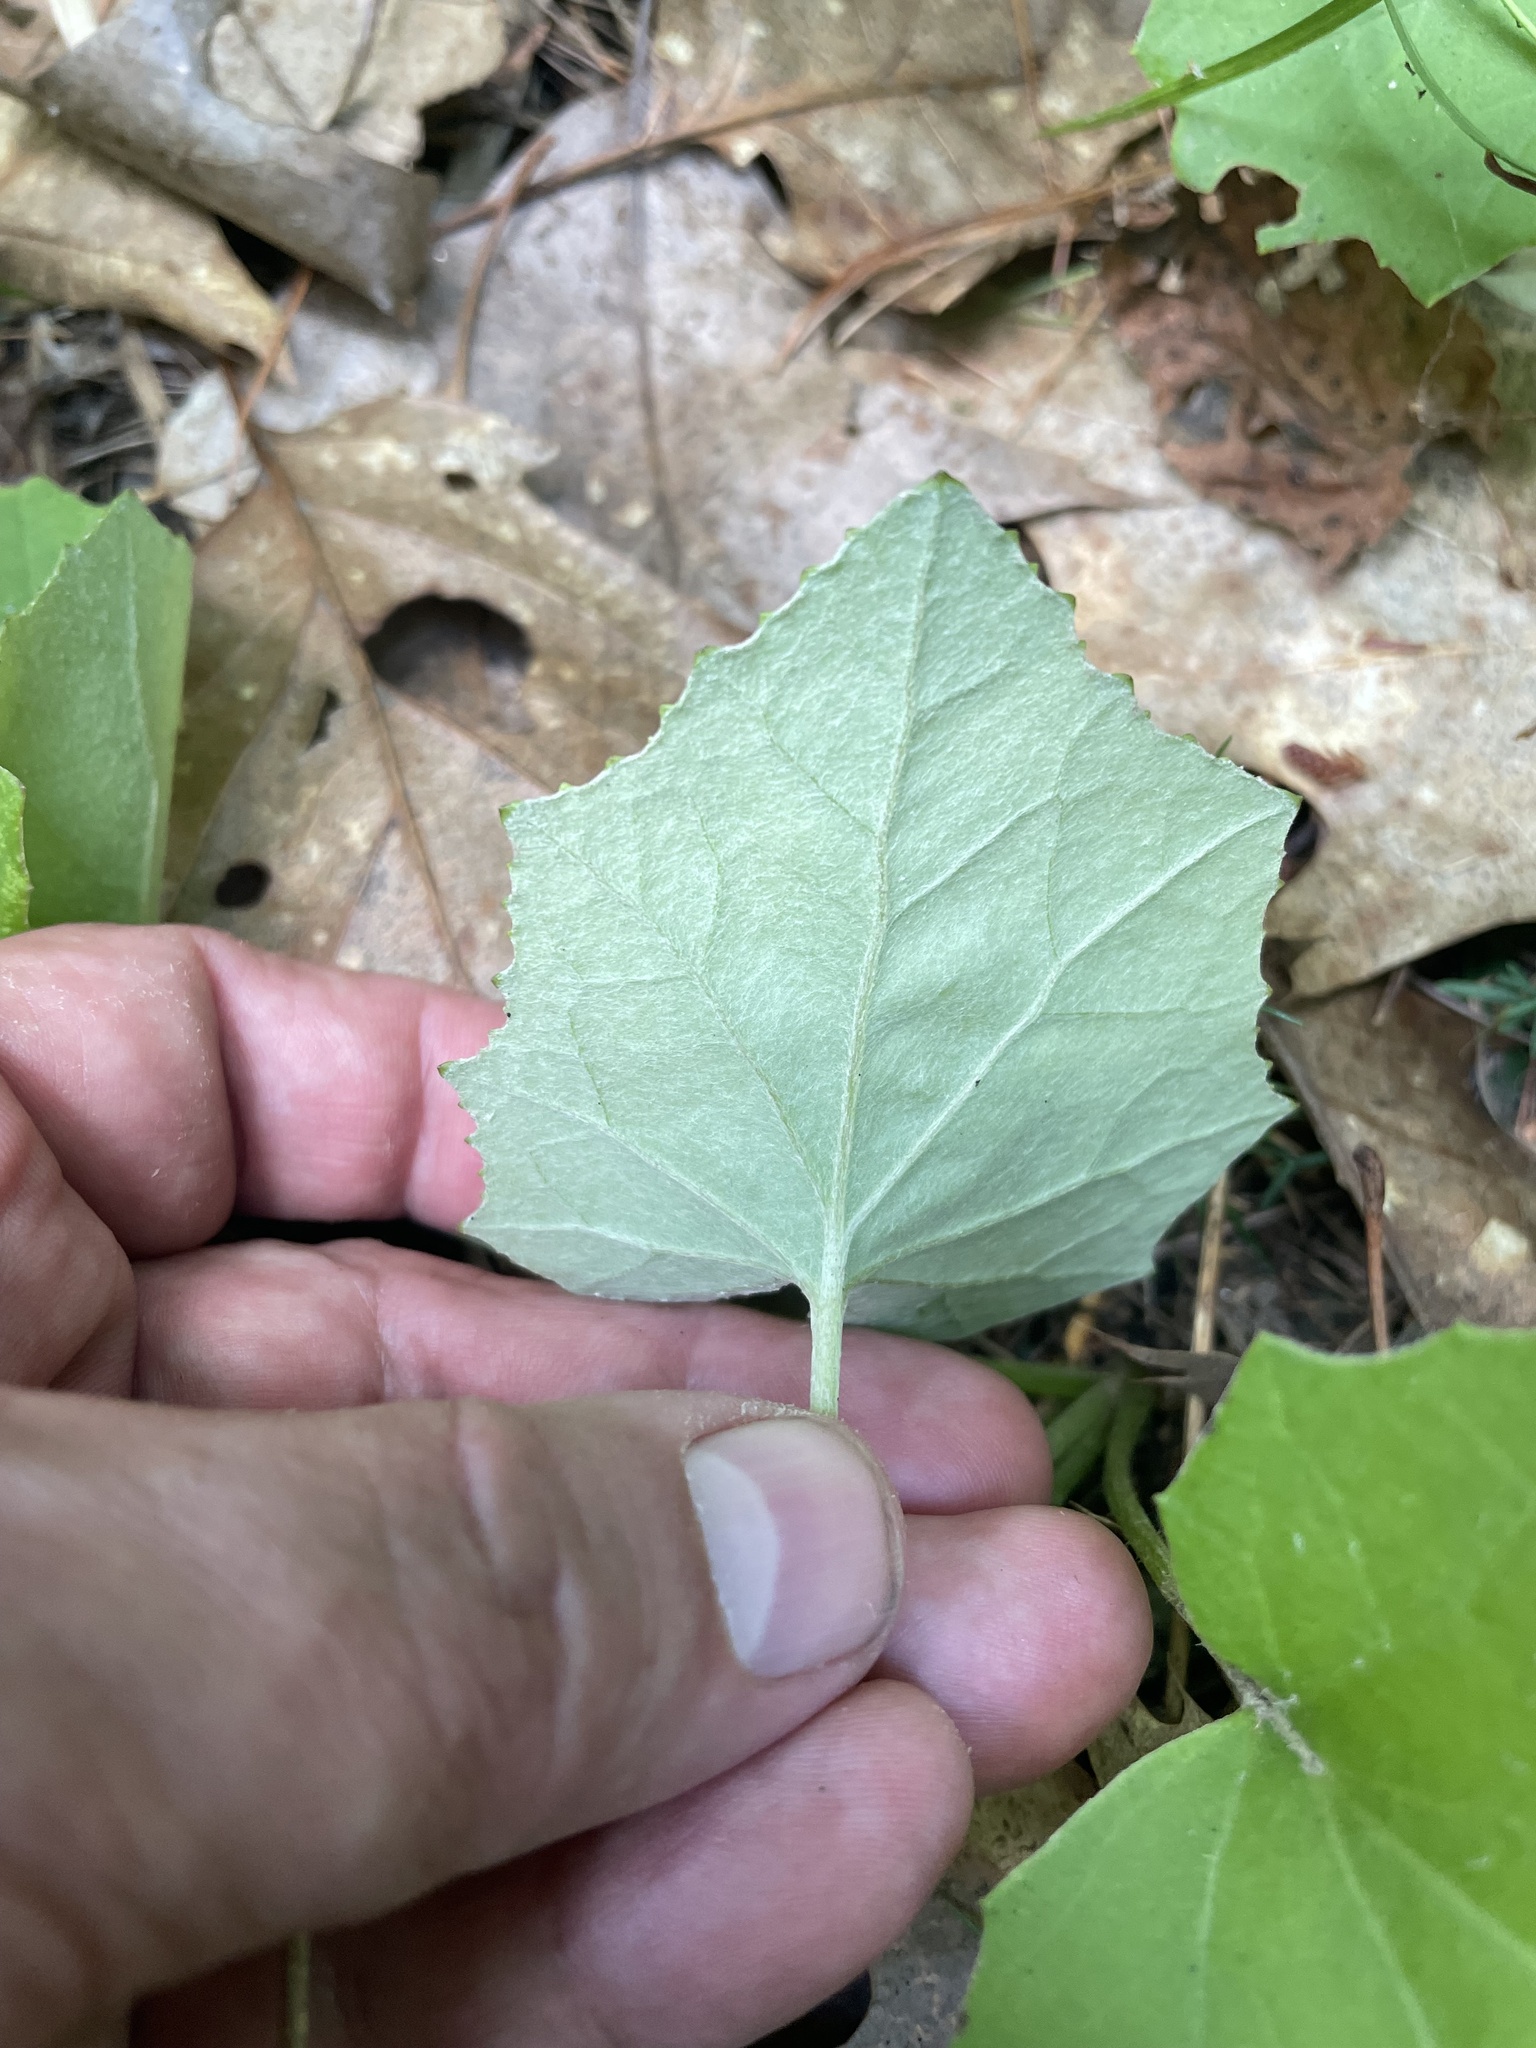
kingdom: Plantae
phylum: Tracheophyta
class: Magnoliopsida
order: Asterales
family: Asteraceae
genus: Tussilago
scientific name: Tussilago farfara
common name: Coltsfoot
